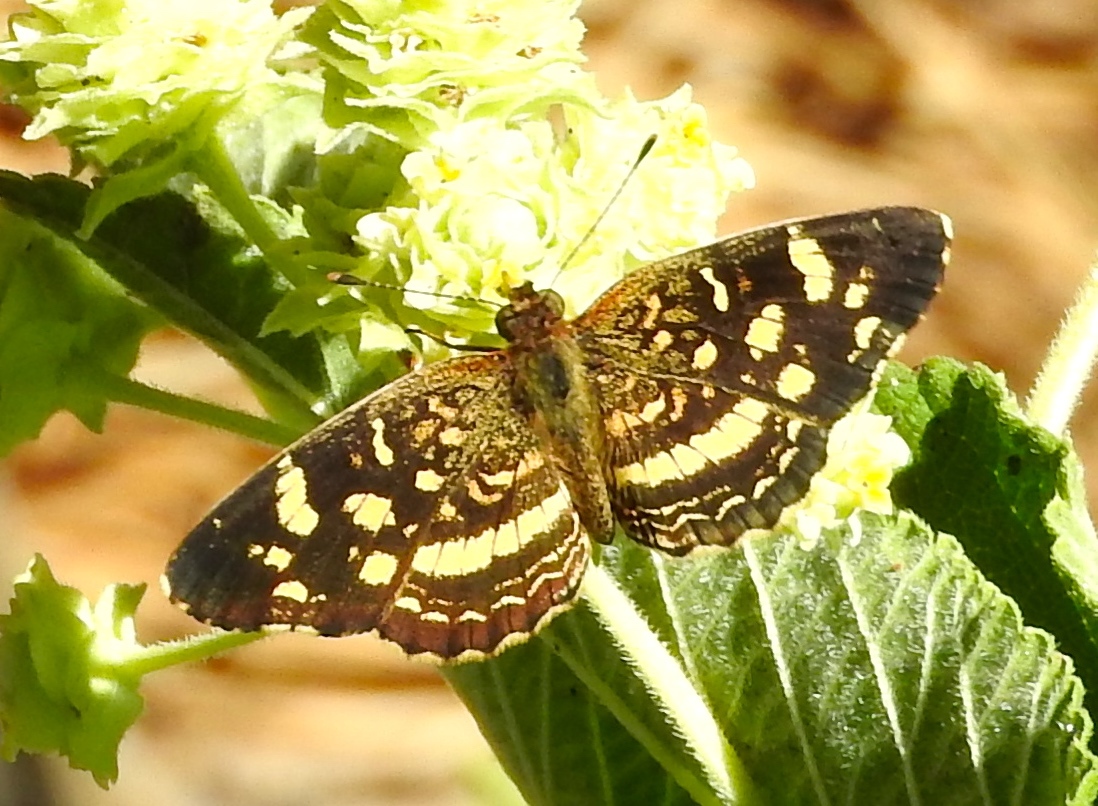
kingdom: Animalia
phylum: Arthropoda
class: Insecta
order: Lepidoptera
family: Nymphalidae
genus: Anthanassa
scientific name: Anthanassa tulcis
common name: Pale-banded crescent
